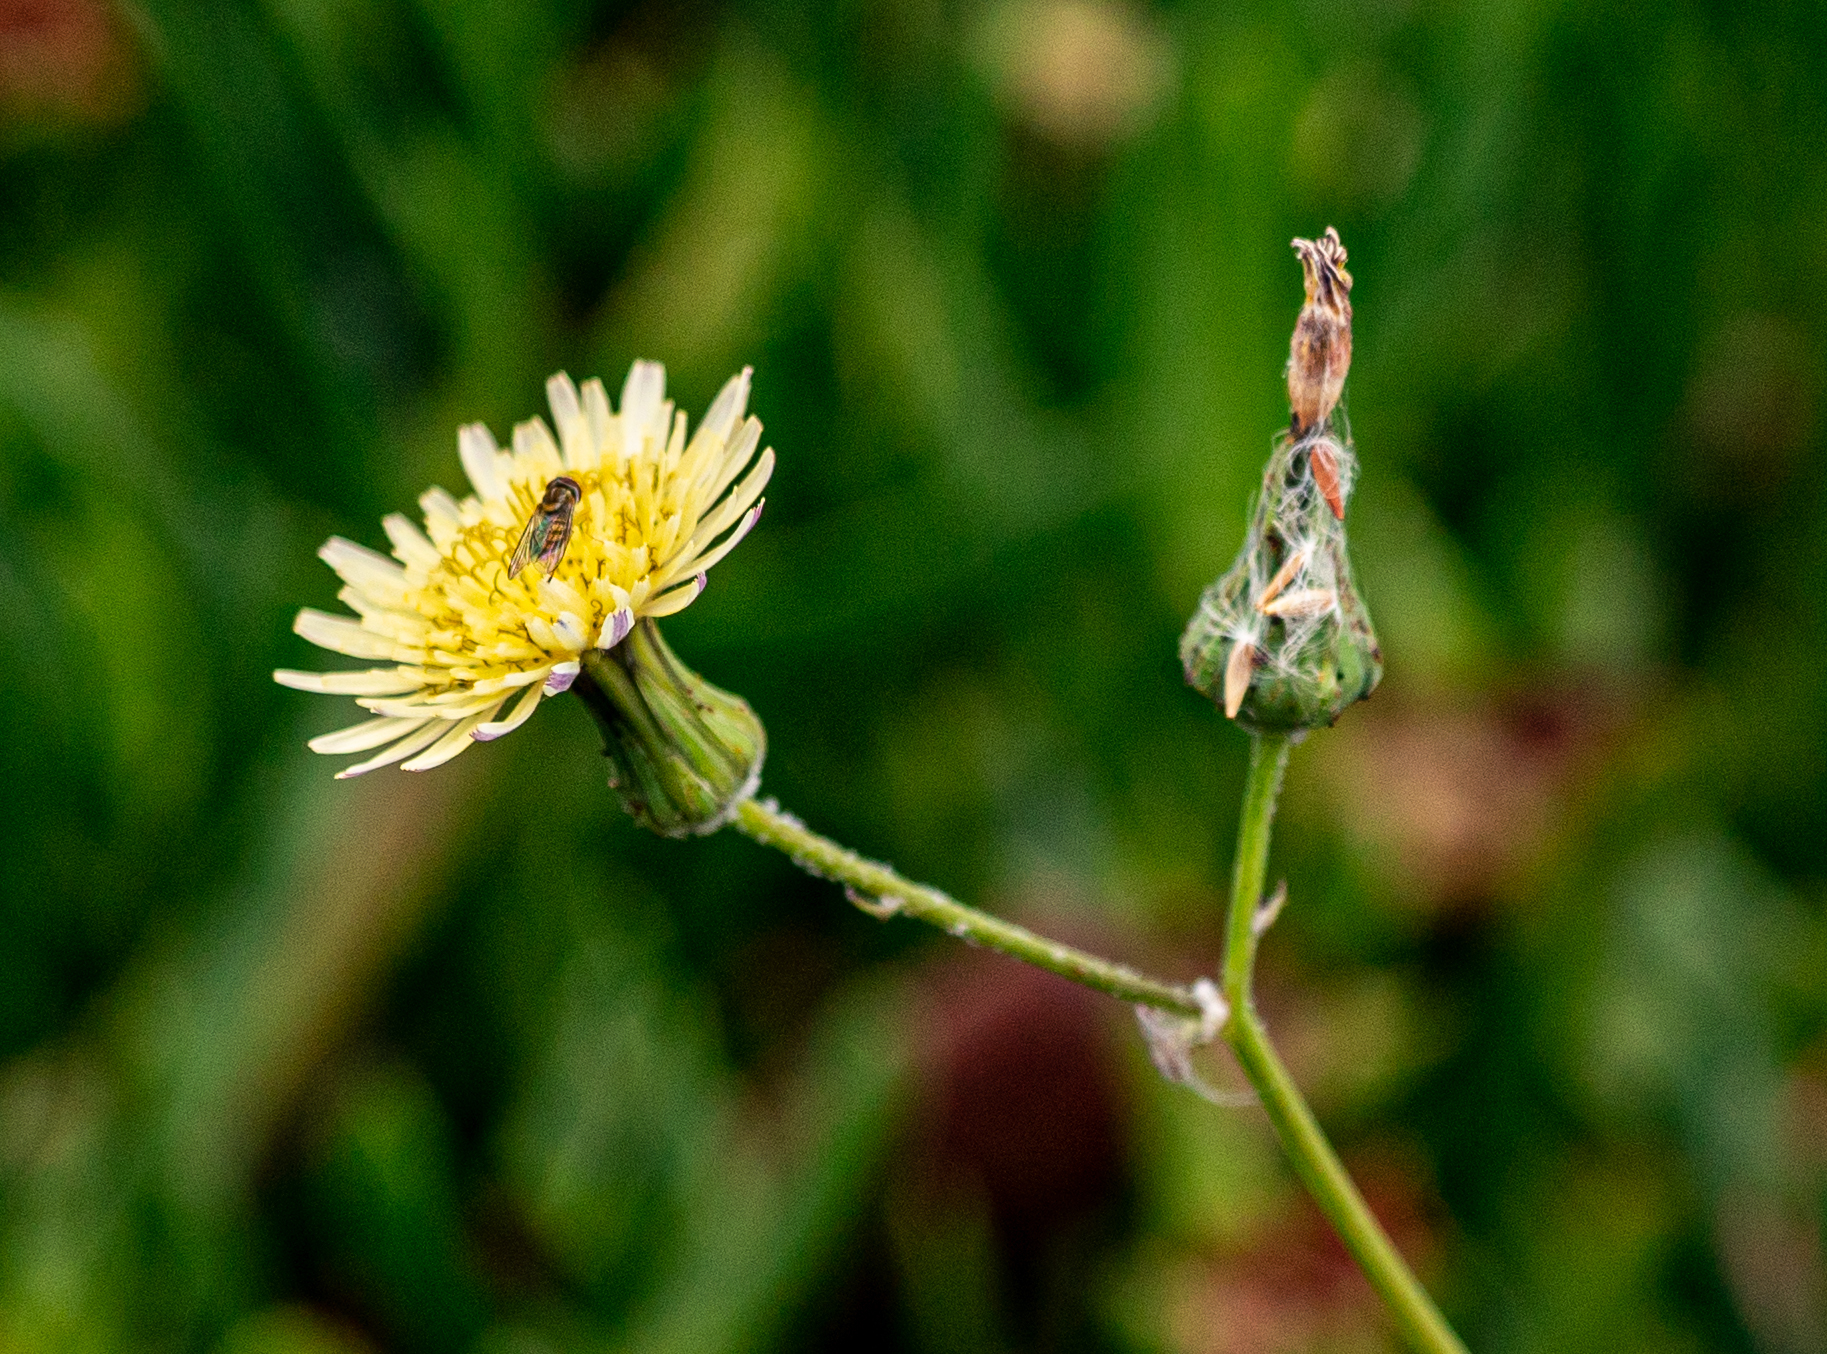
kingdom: Animalia
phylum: Arthropoda
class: Insecta
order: Diptera
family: Syrphidae
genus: Toxomerus
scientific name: Toxomerus marginatus
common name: Syrphid fly
